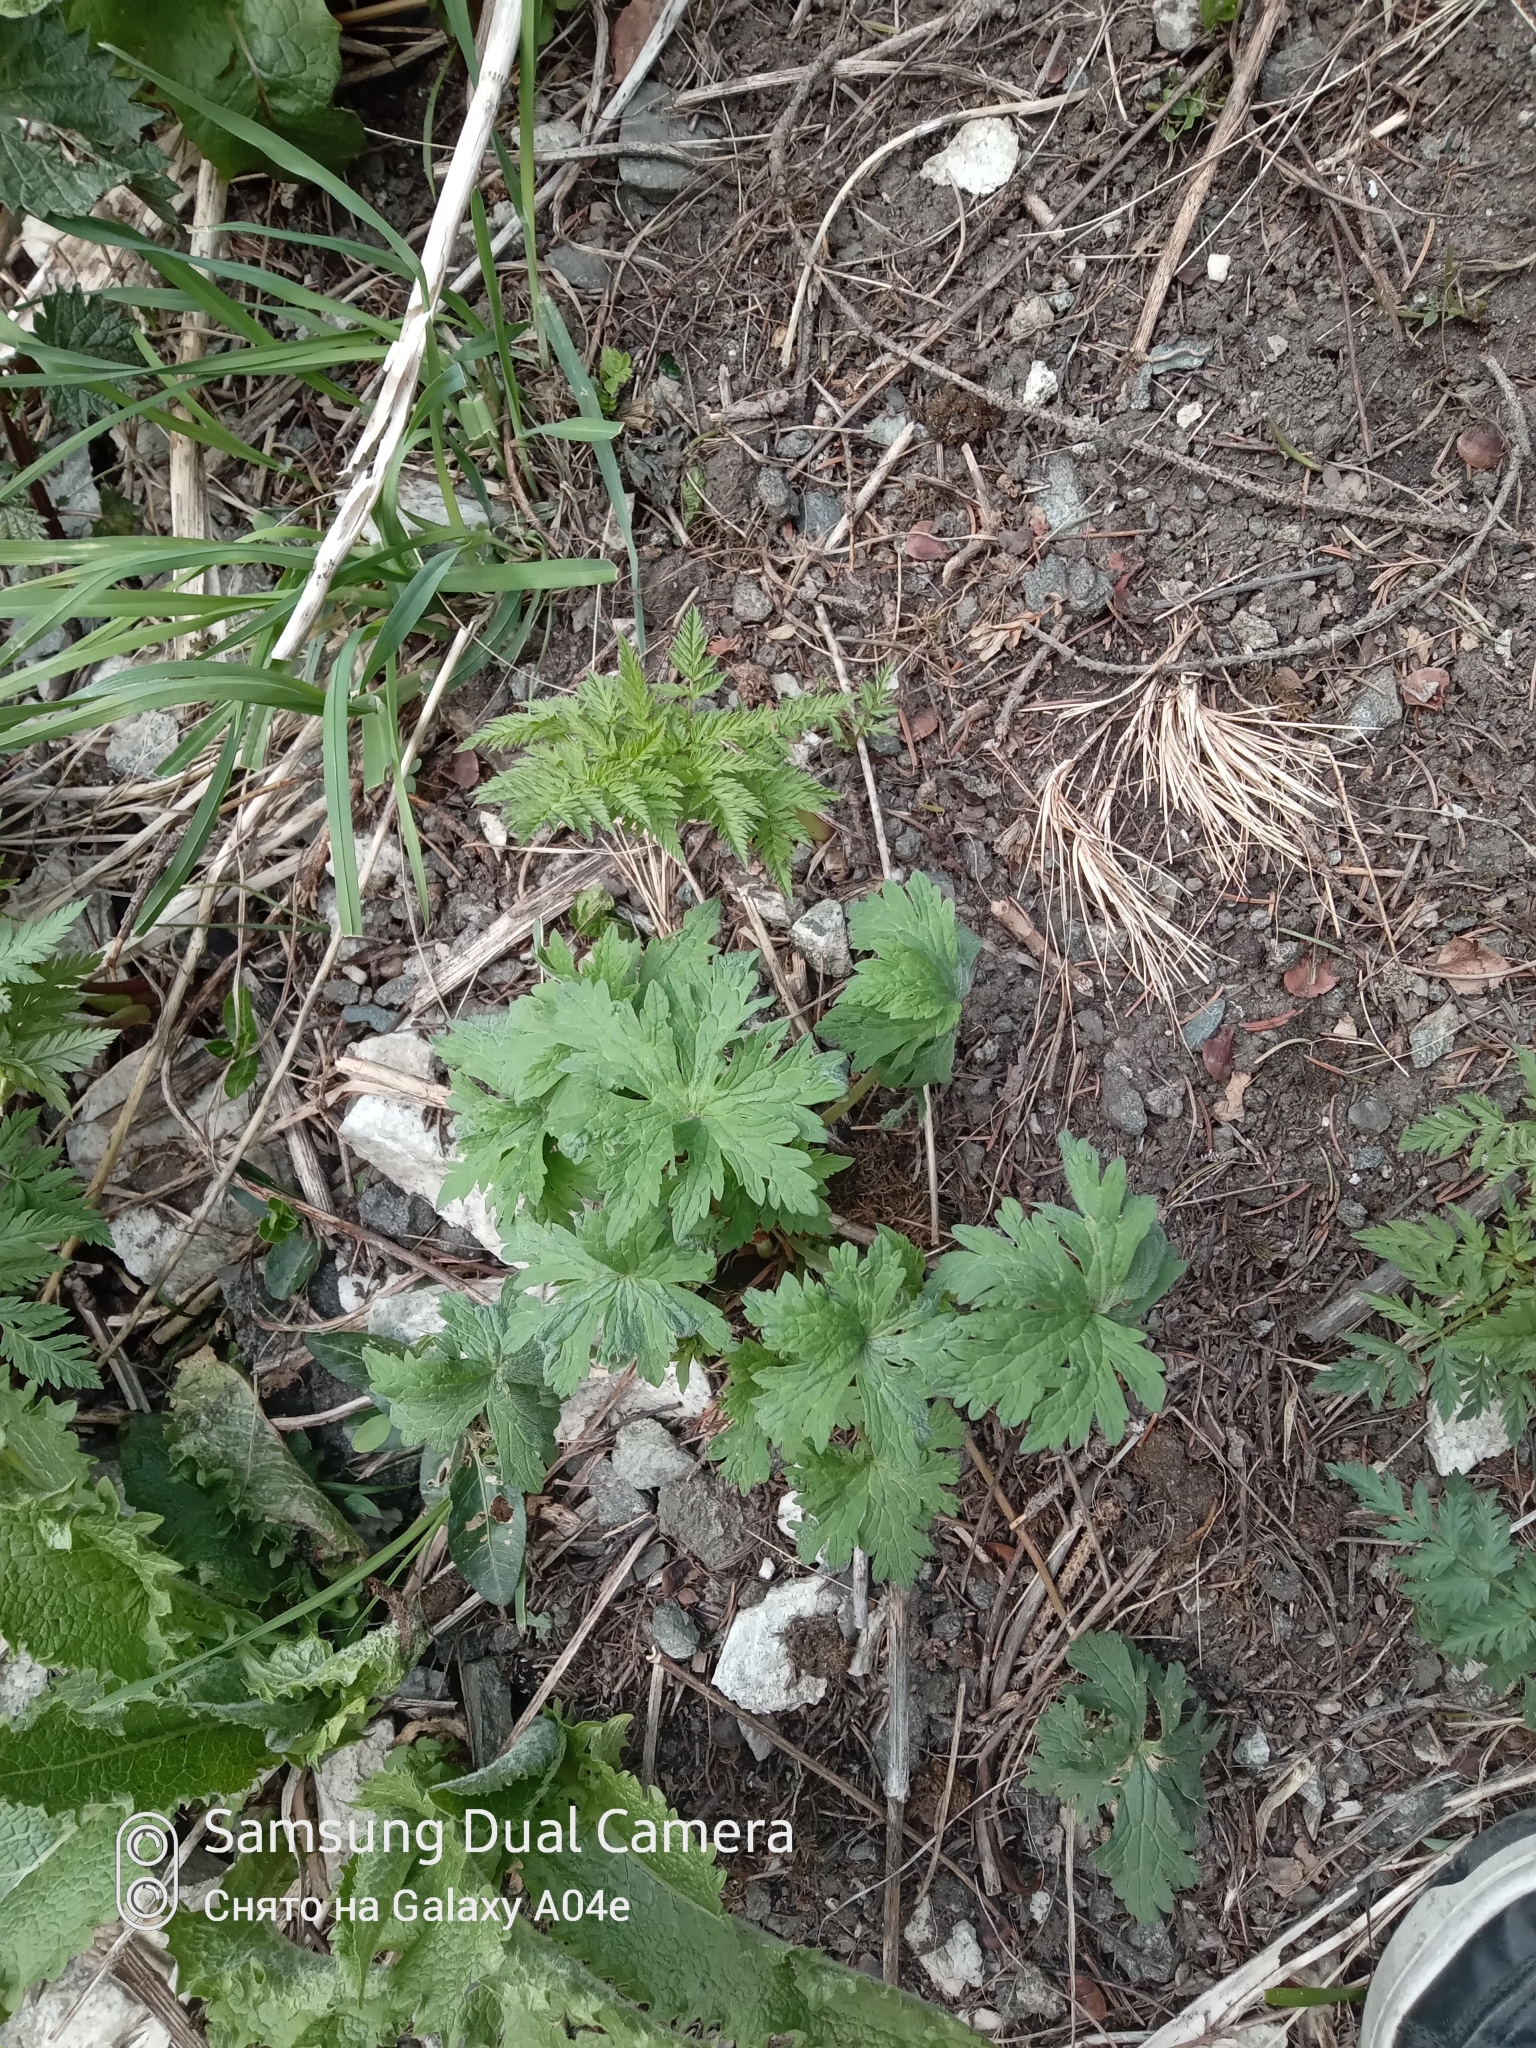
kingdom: Plantae
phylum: Tracheophyta
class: Magnoliopsida
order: Ranunculales
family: Ranunculaceae
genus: Aconitum
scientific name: Aconitum leucostomum
